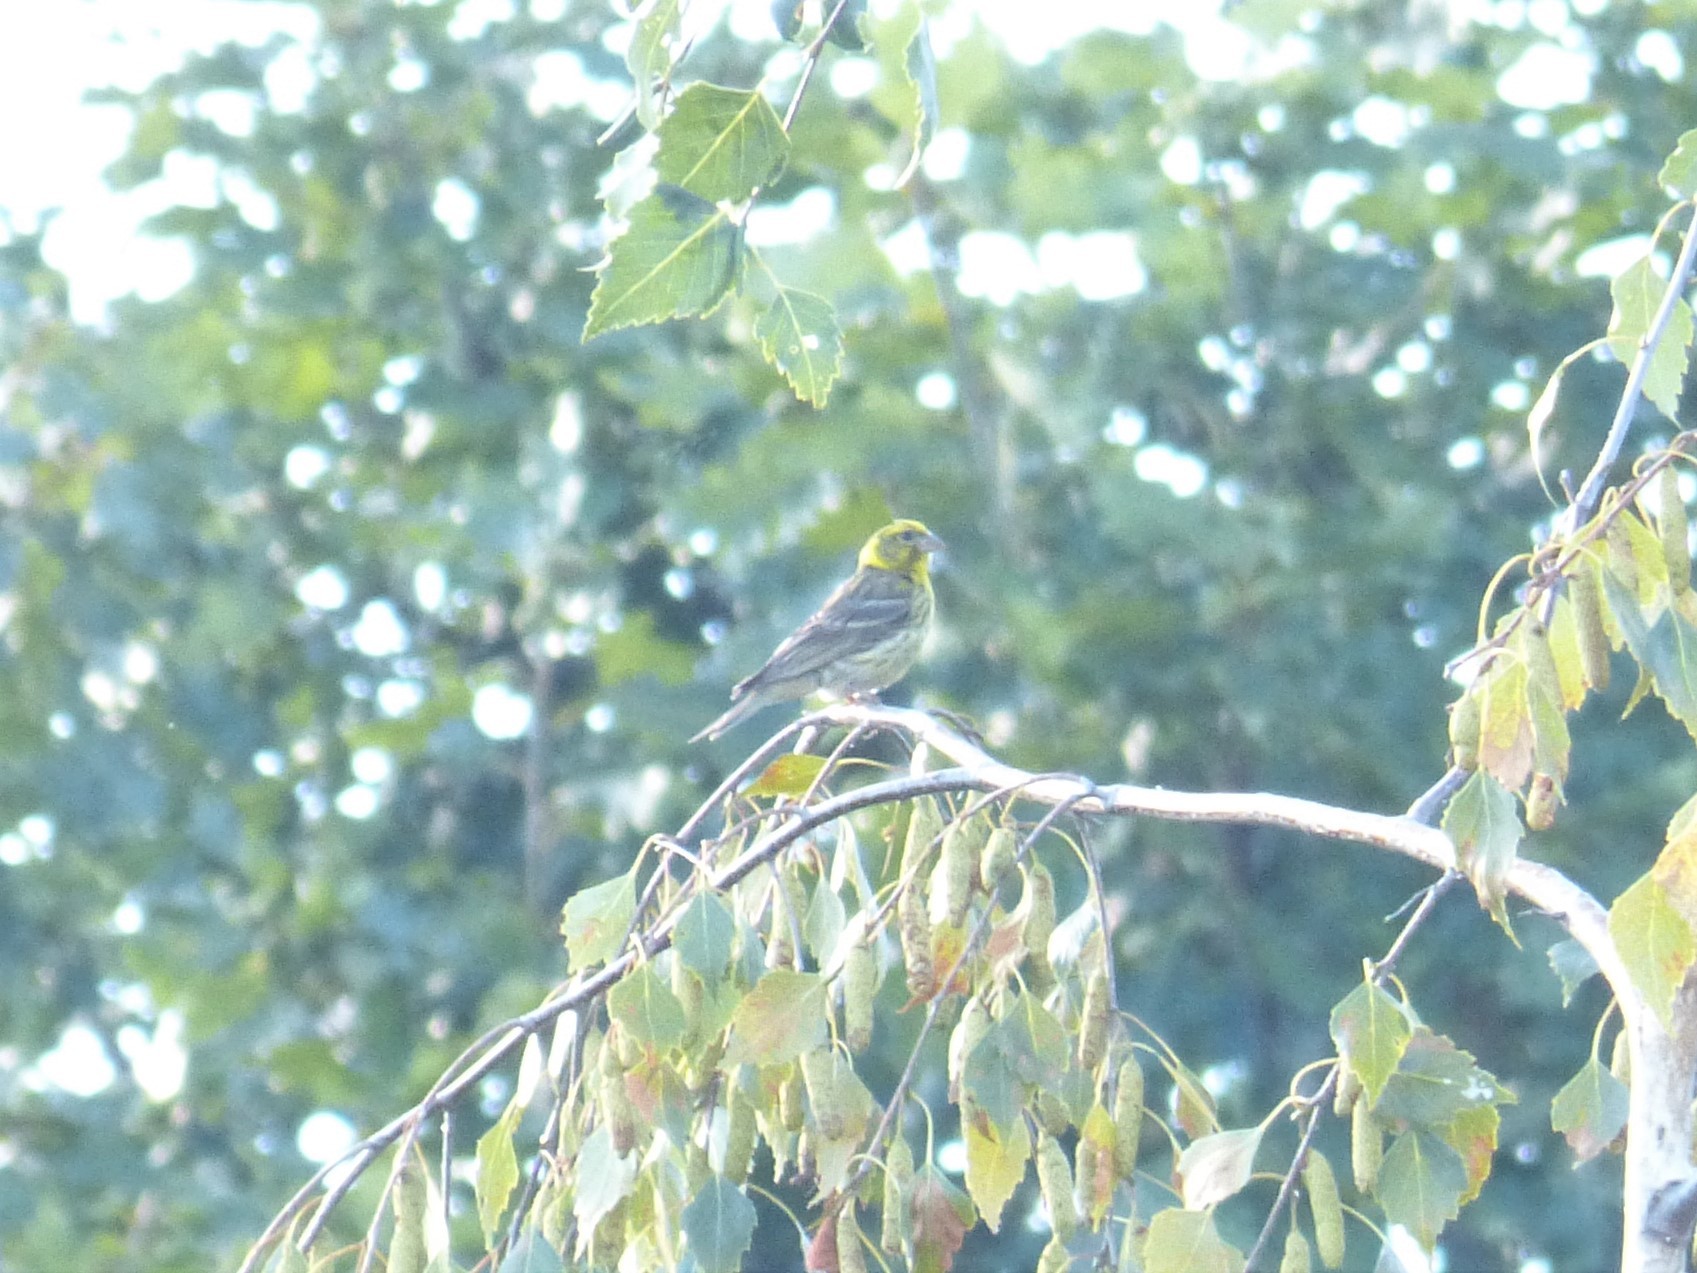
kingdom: Animalia
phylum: Chordata
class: Aves
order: Passeriformes
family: Fringillidae
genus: Serinus
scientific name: Serinus serinus
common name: European serin
